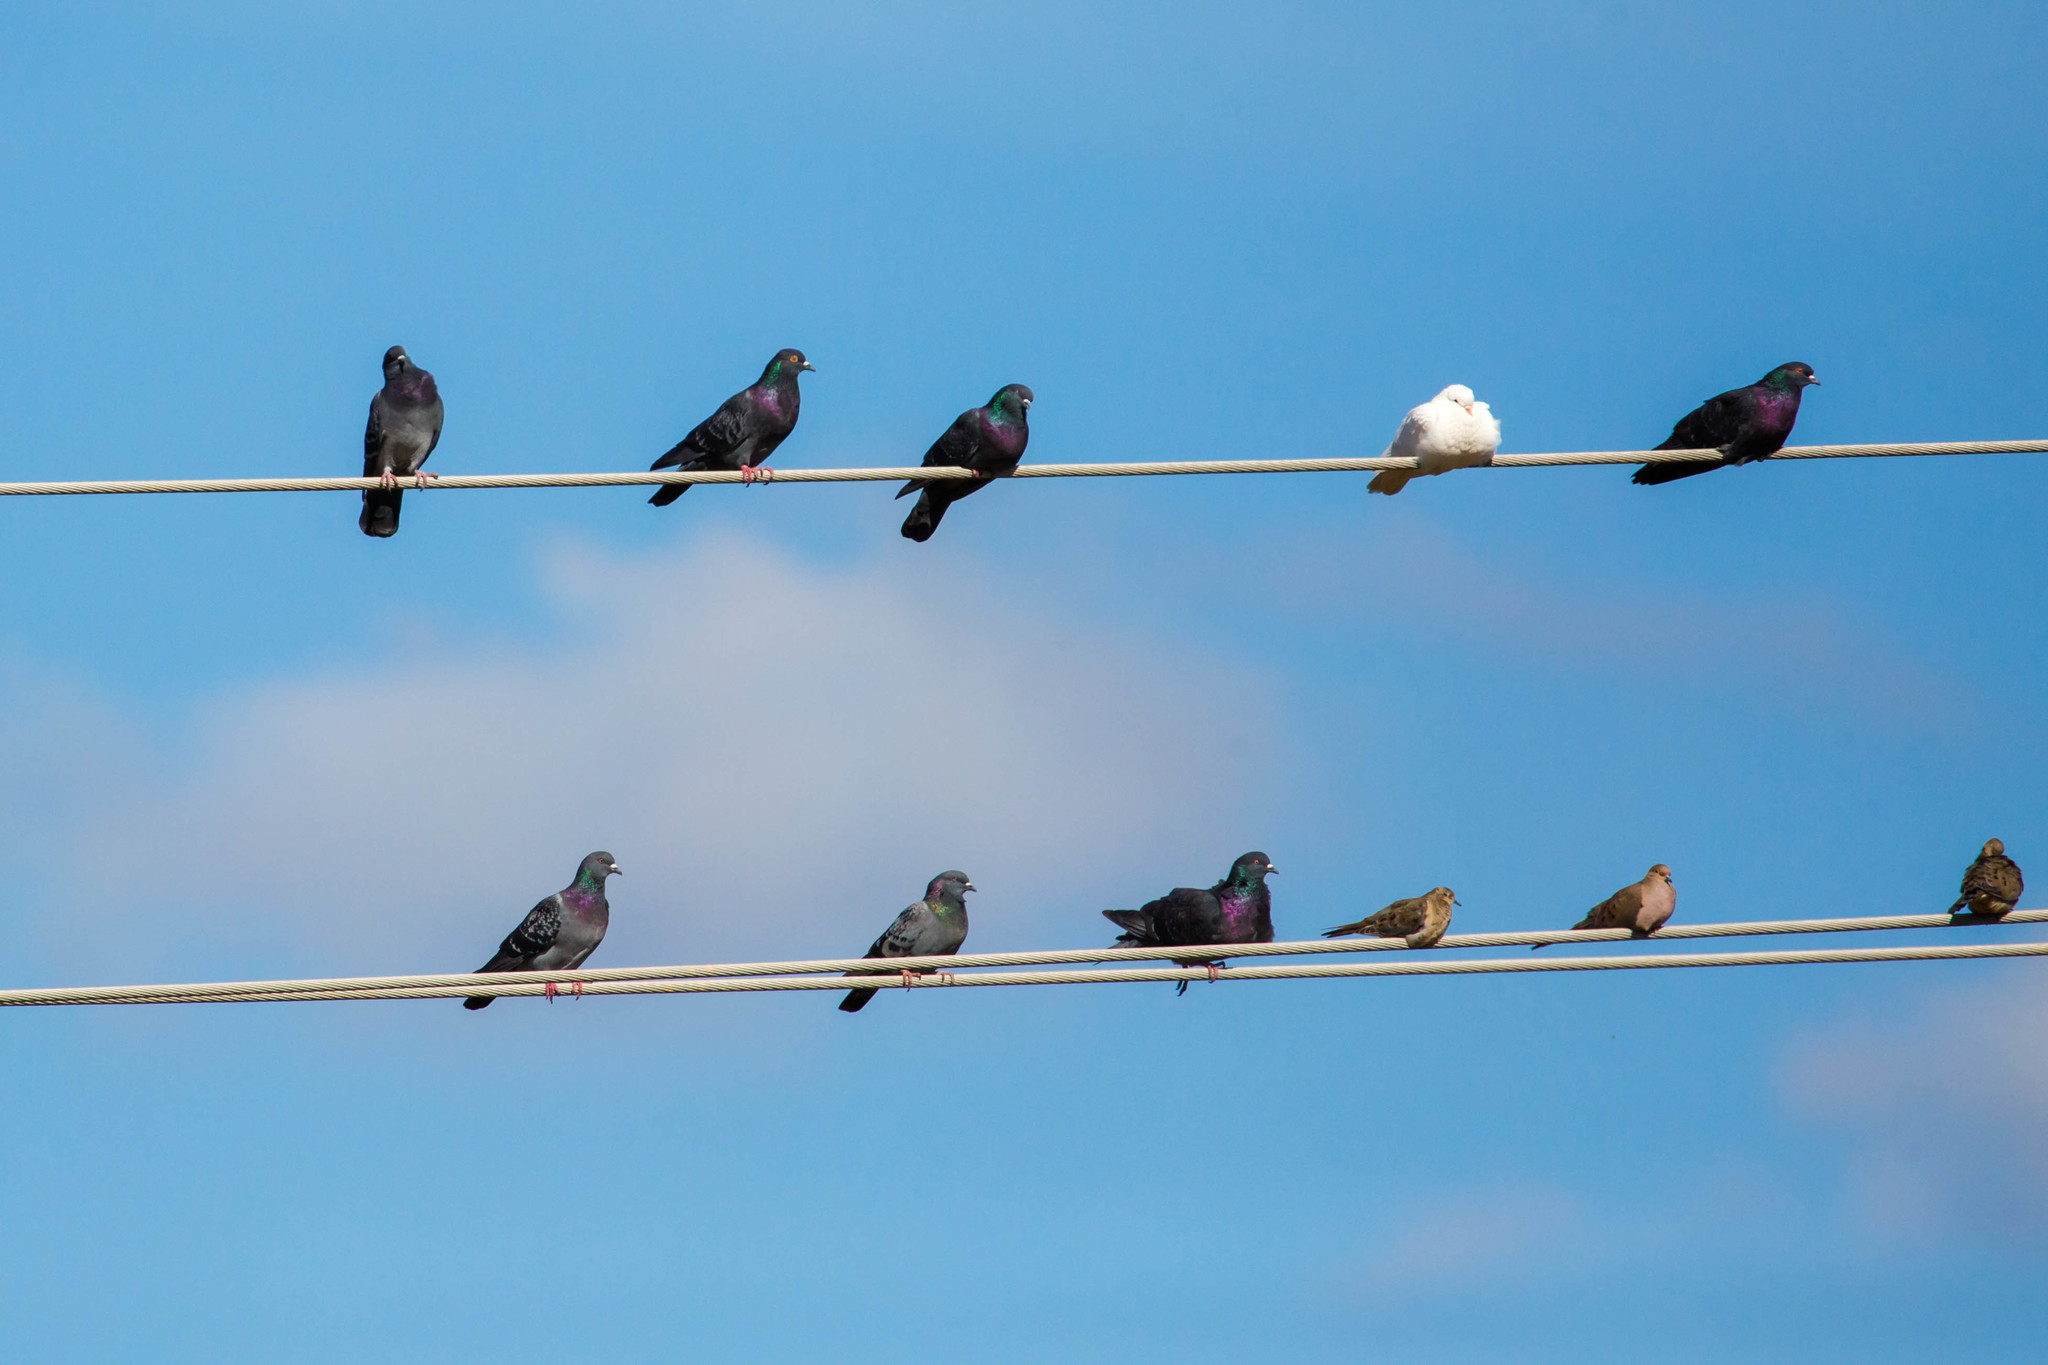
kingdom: Animalia
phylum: Chordata
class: Aves
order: Columbiformes
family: Columbidae
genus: Columba
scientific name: Columba livia
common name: Rock pigeon
